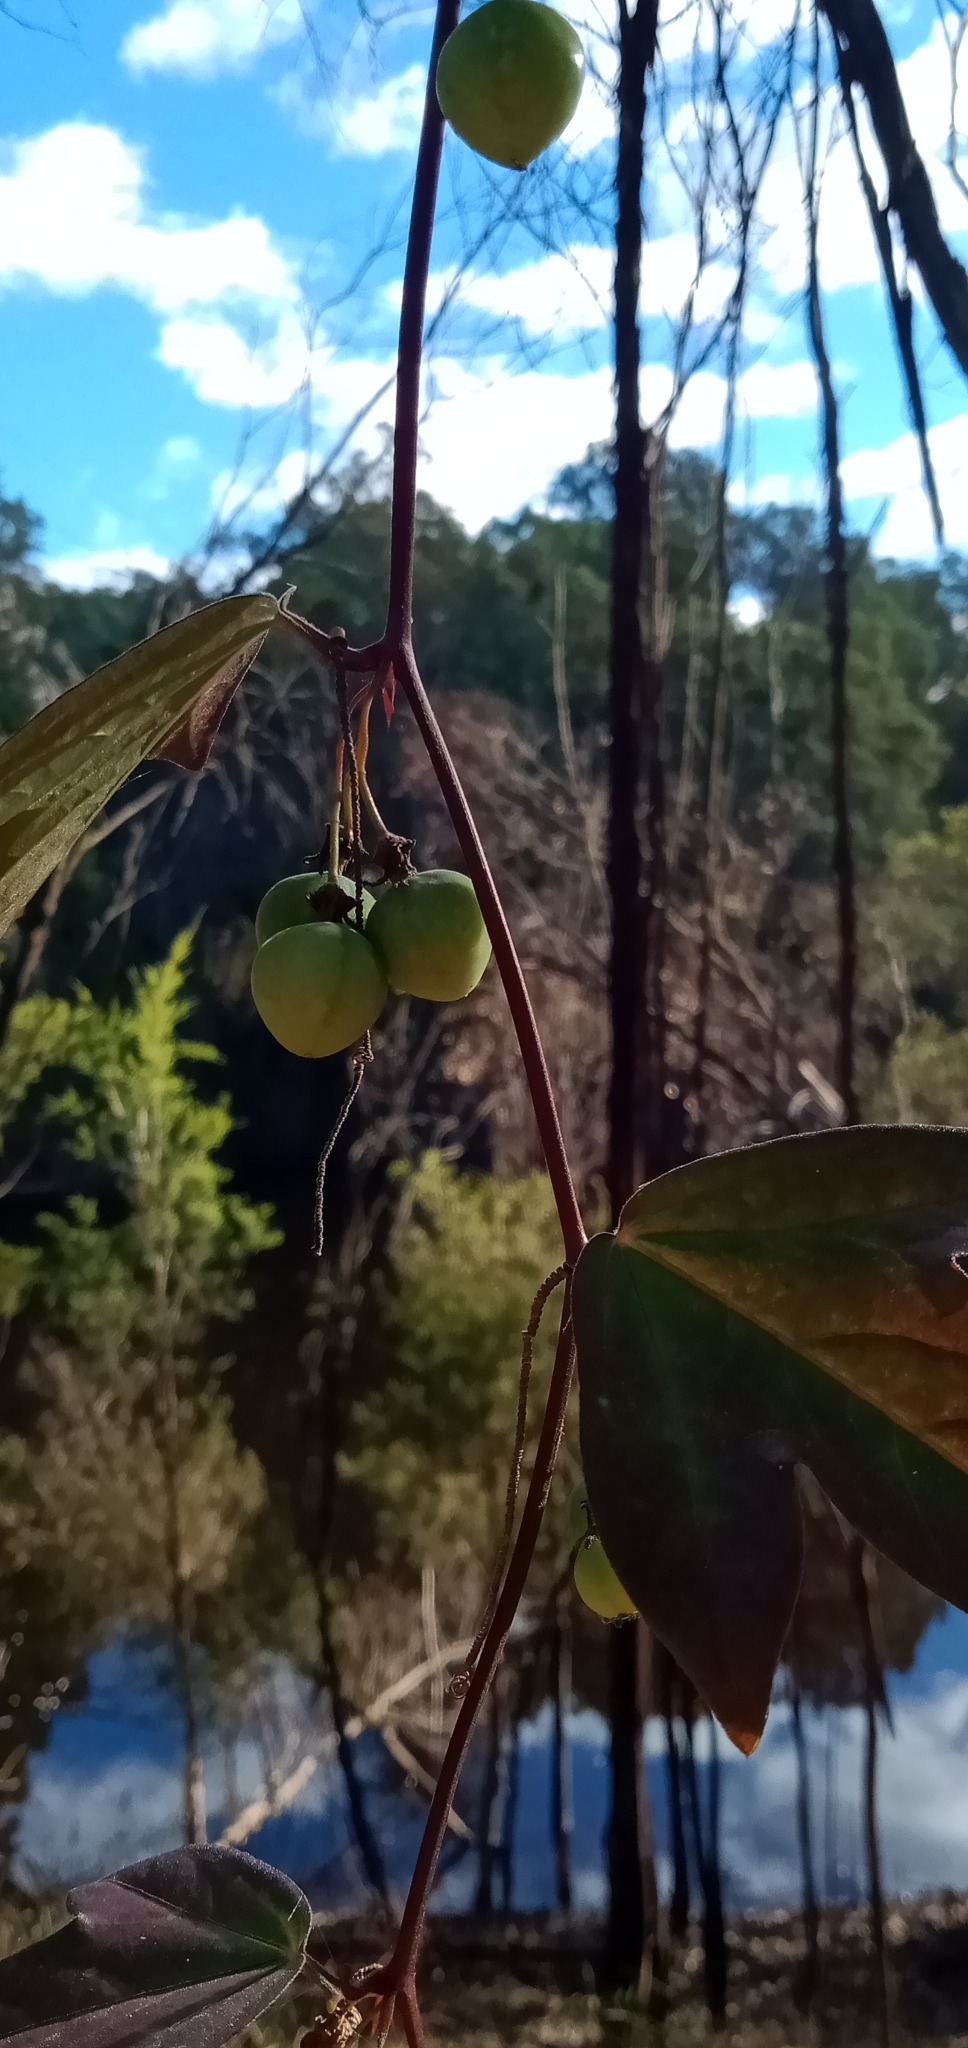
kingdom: Plantae
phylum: Tracheophyta
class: Magnoliopsida
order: Malpighiales
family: Passifloraceae
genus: Passiflora
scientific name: Passiflora suberosa
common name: Wild passionfruit
